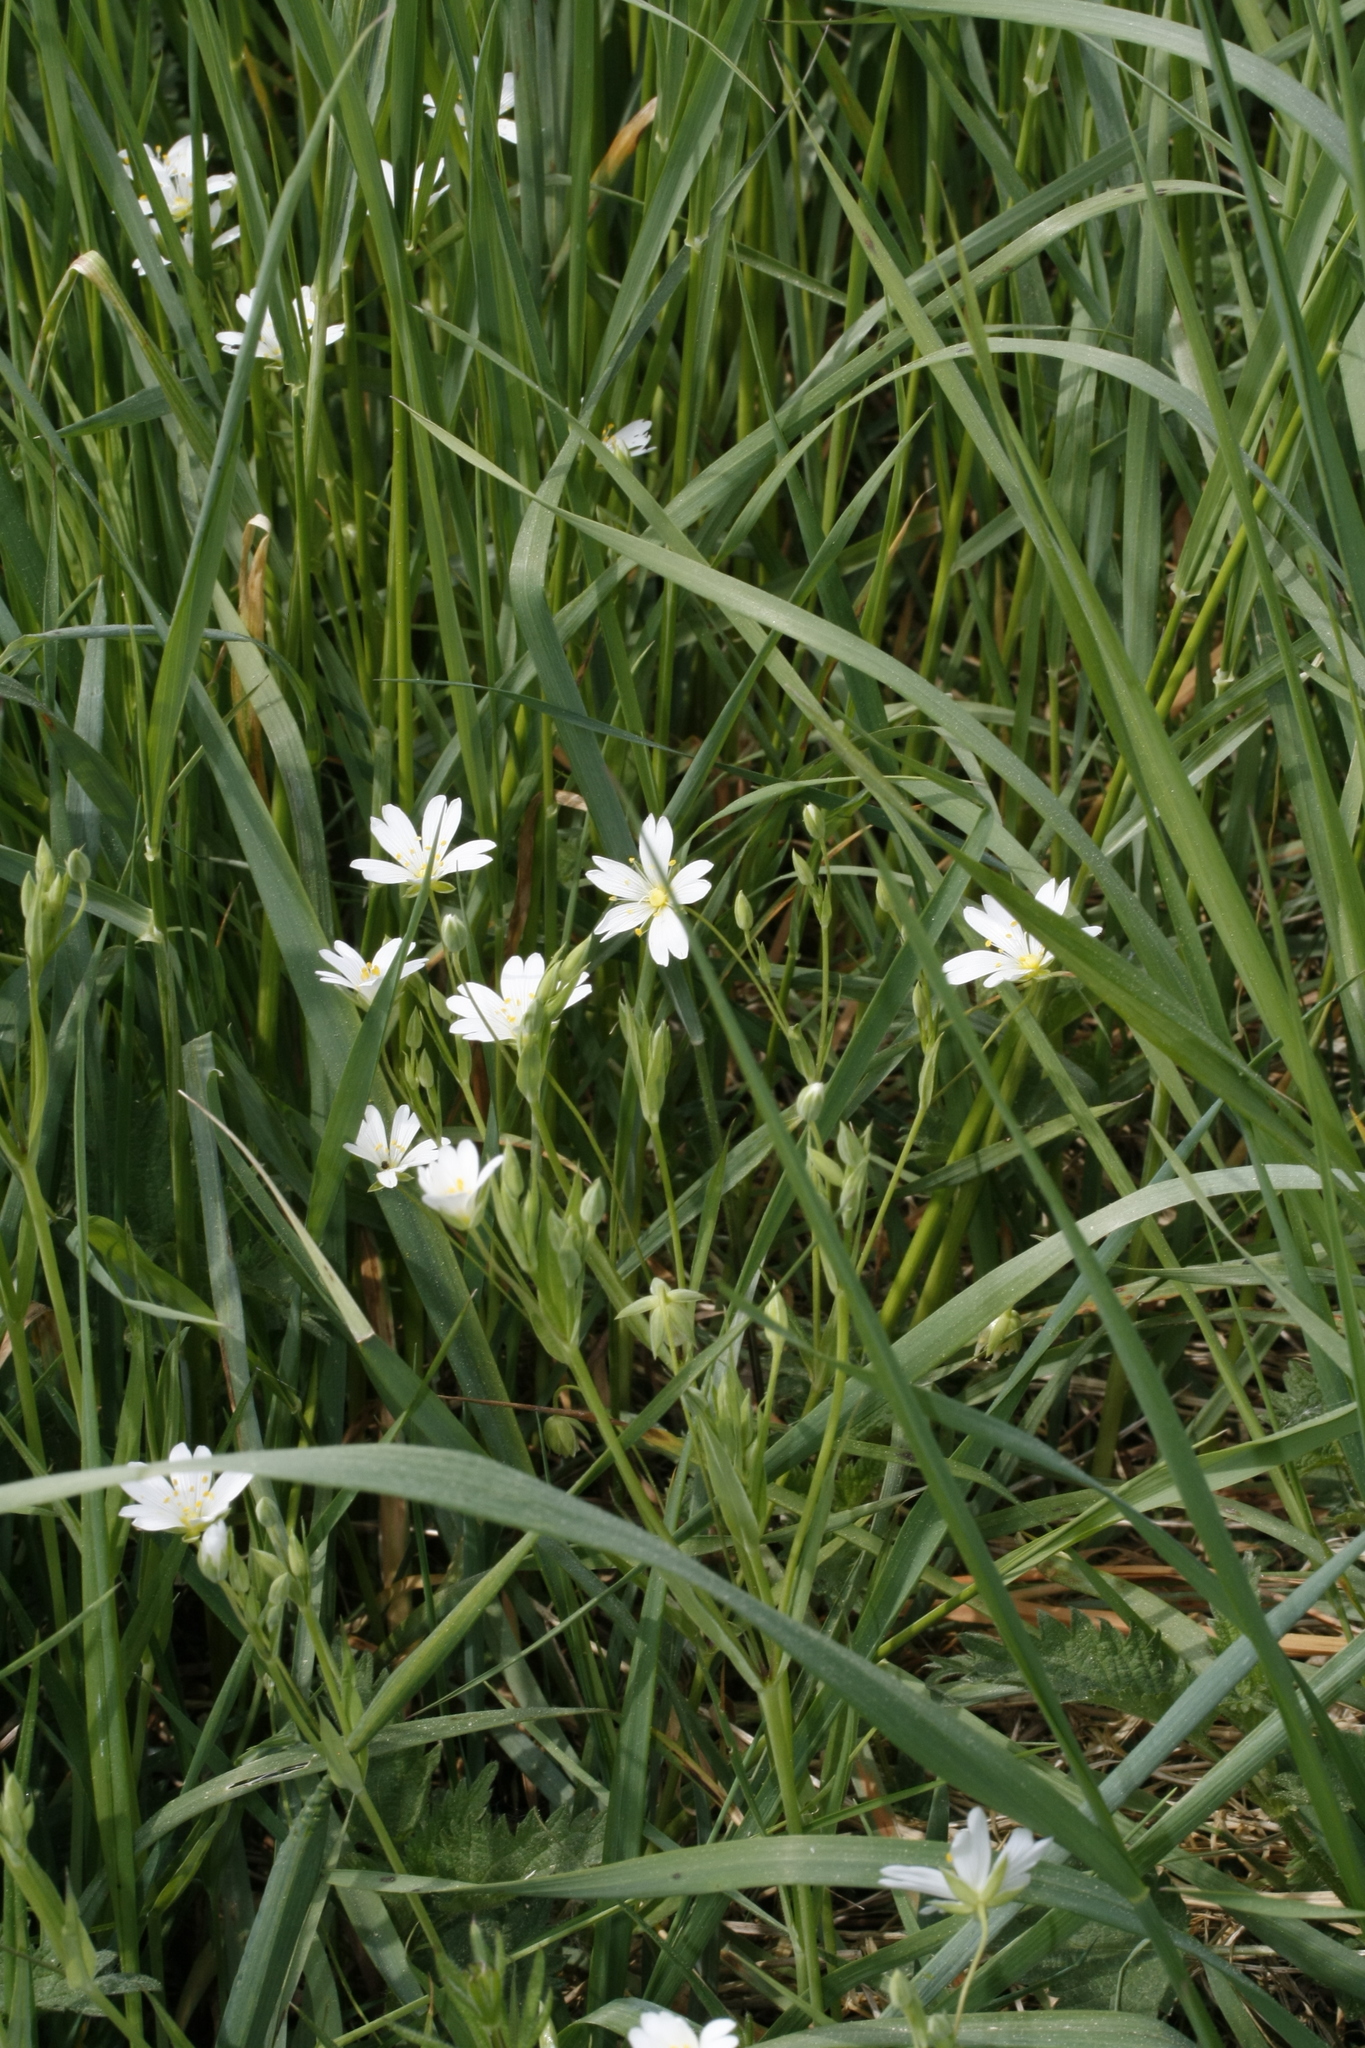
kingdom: Plantae
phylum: Tracheophyta
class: Magnoliopsida
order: Caryophyllales
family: Caryophyllaceae
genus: Rabelera
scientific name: Rabelera holostea
